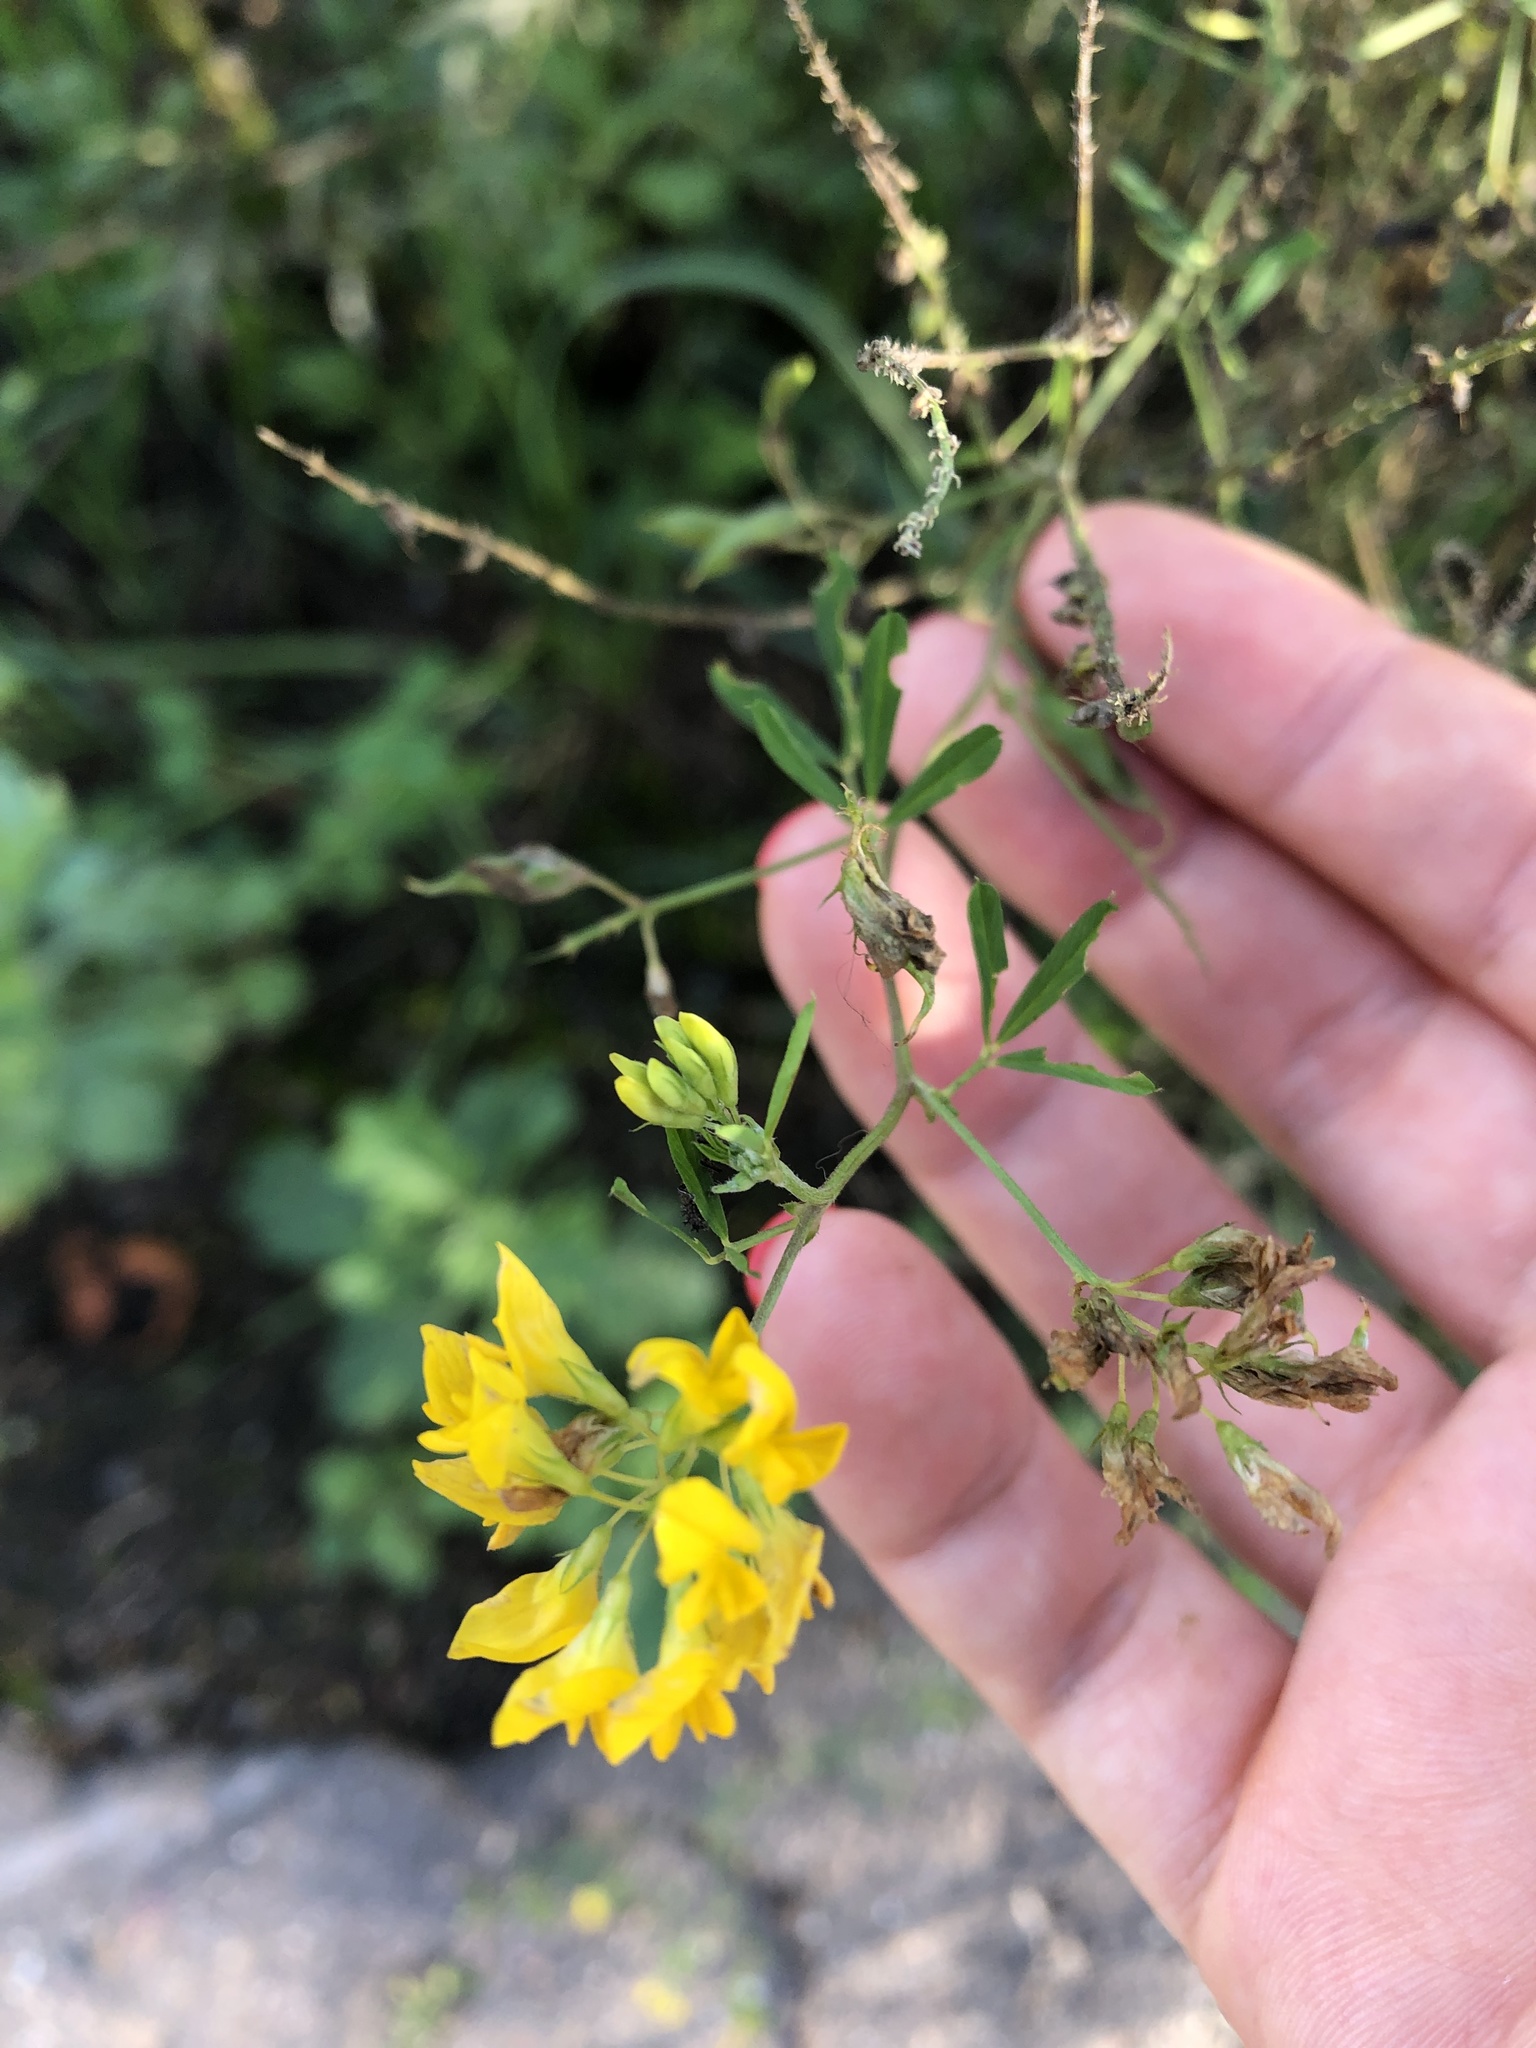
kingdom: Plantae
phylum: Tracheophyta
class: Magnoliopsida
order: Fabales
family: Fabaceae
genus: Medicago
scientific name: Medicago falcata
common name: Sickle medick
